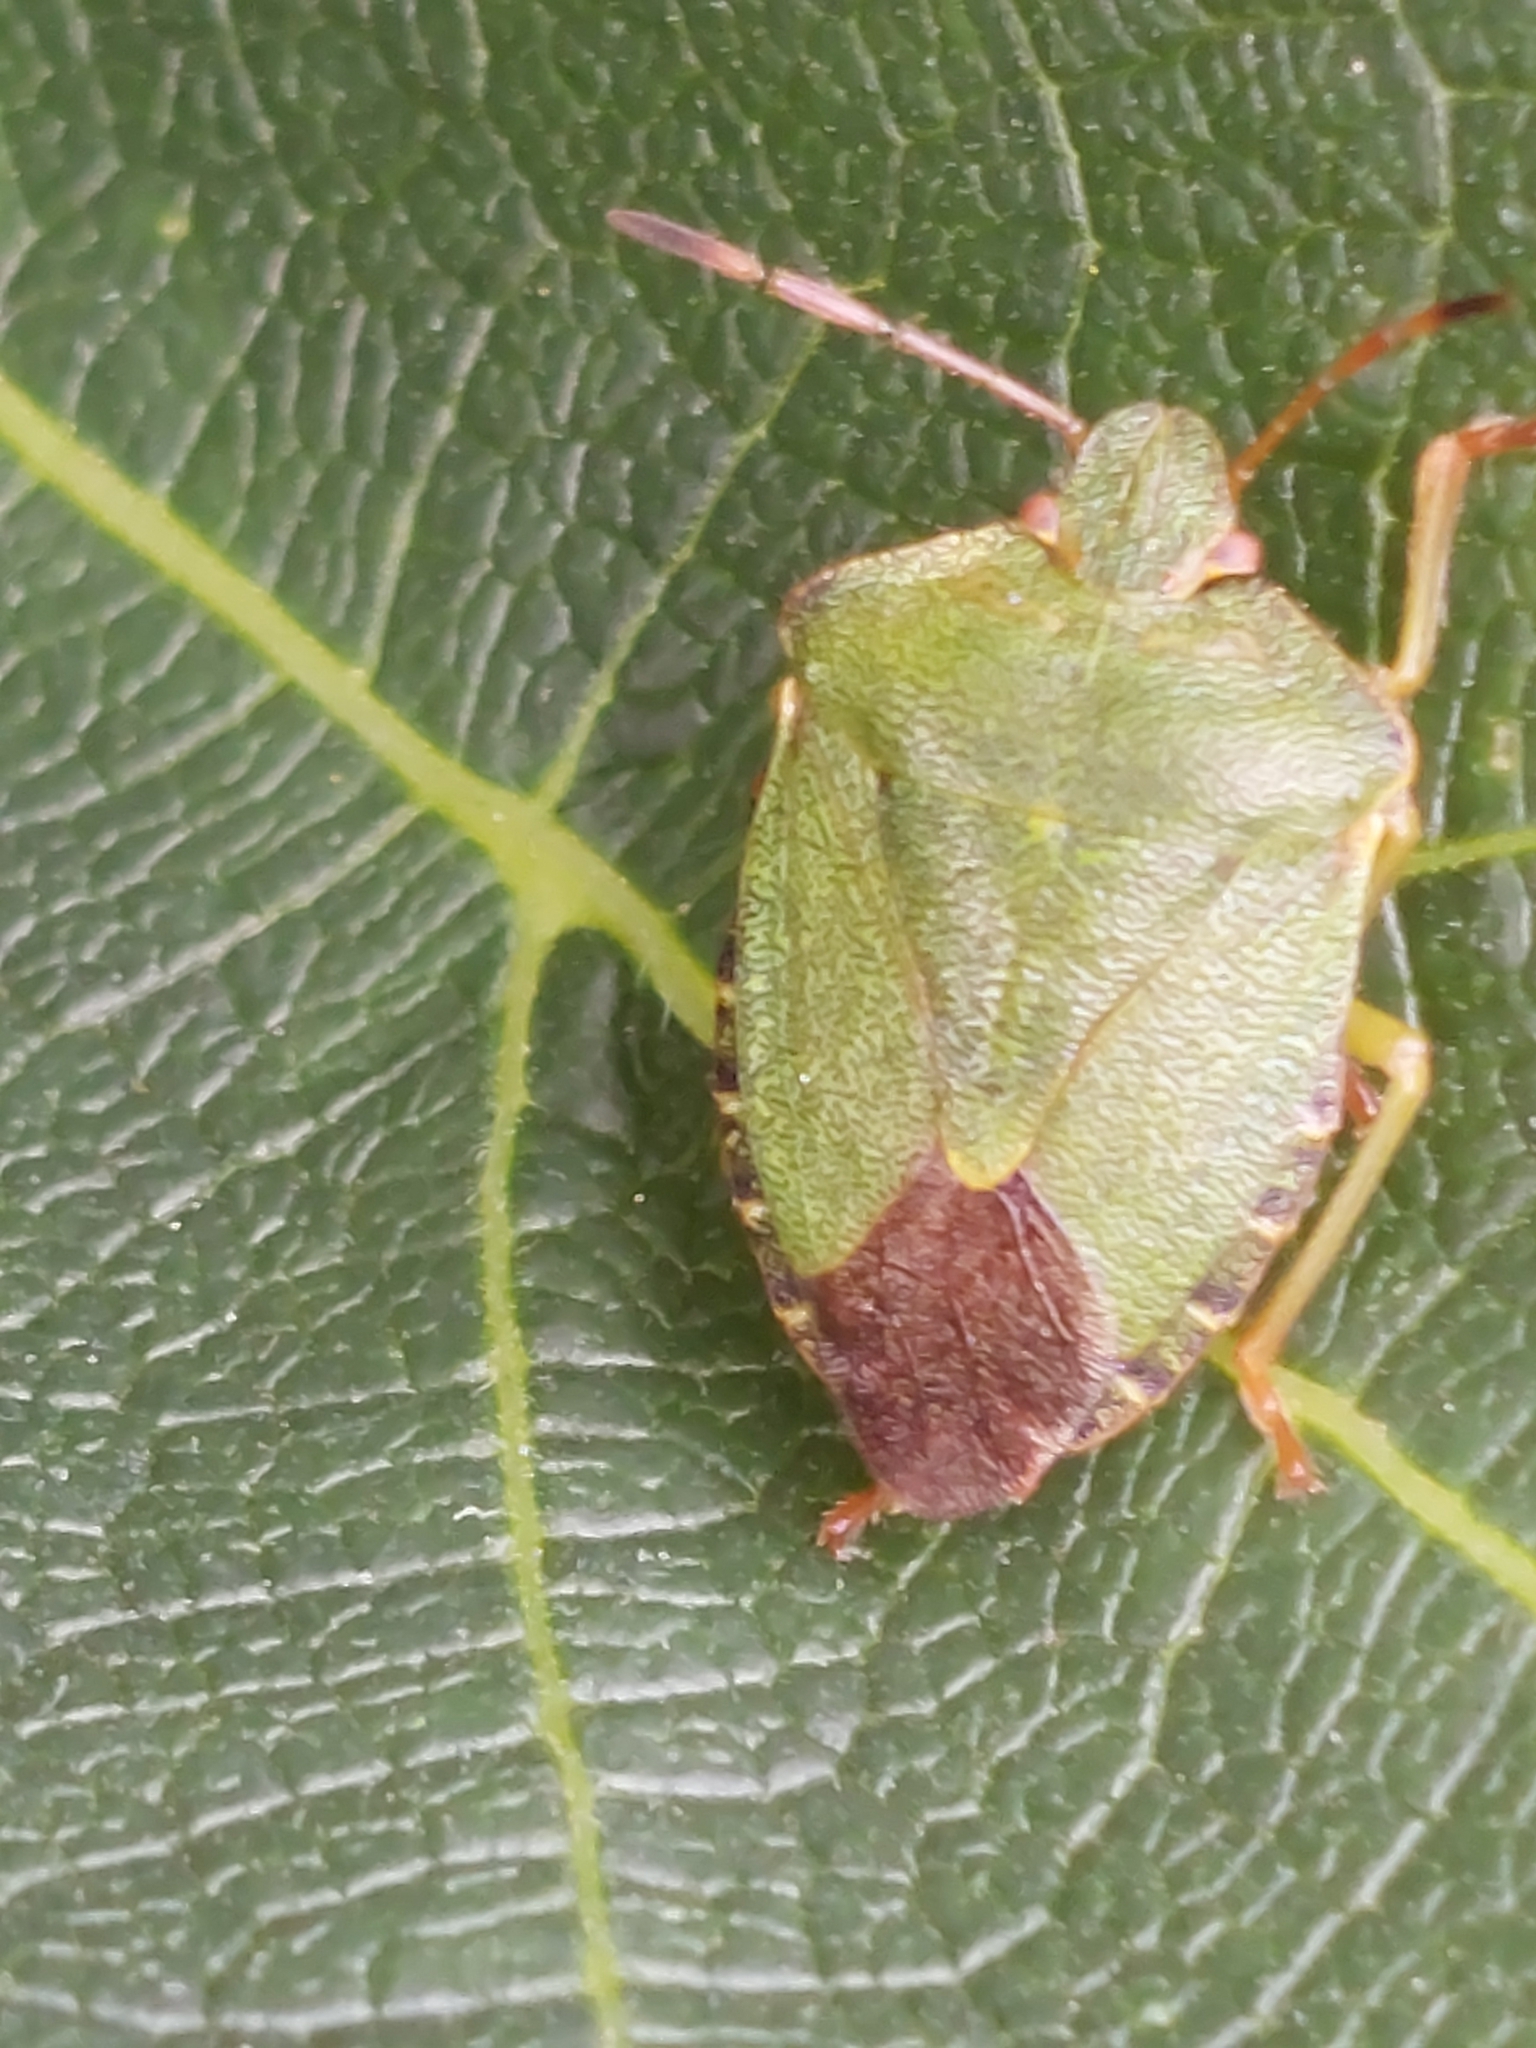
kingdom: Animalia
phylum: Arthropoda
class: Insecta
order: Hemiptera
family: Pentatomidae
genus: Palomena
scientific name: Palomena prasina
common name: Green shieldbug
